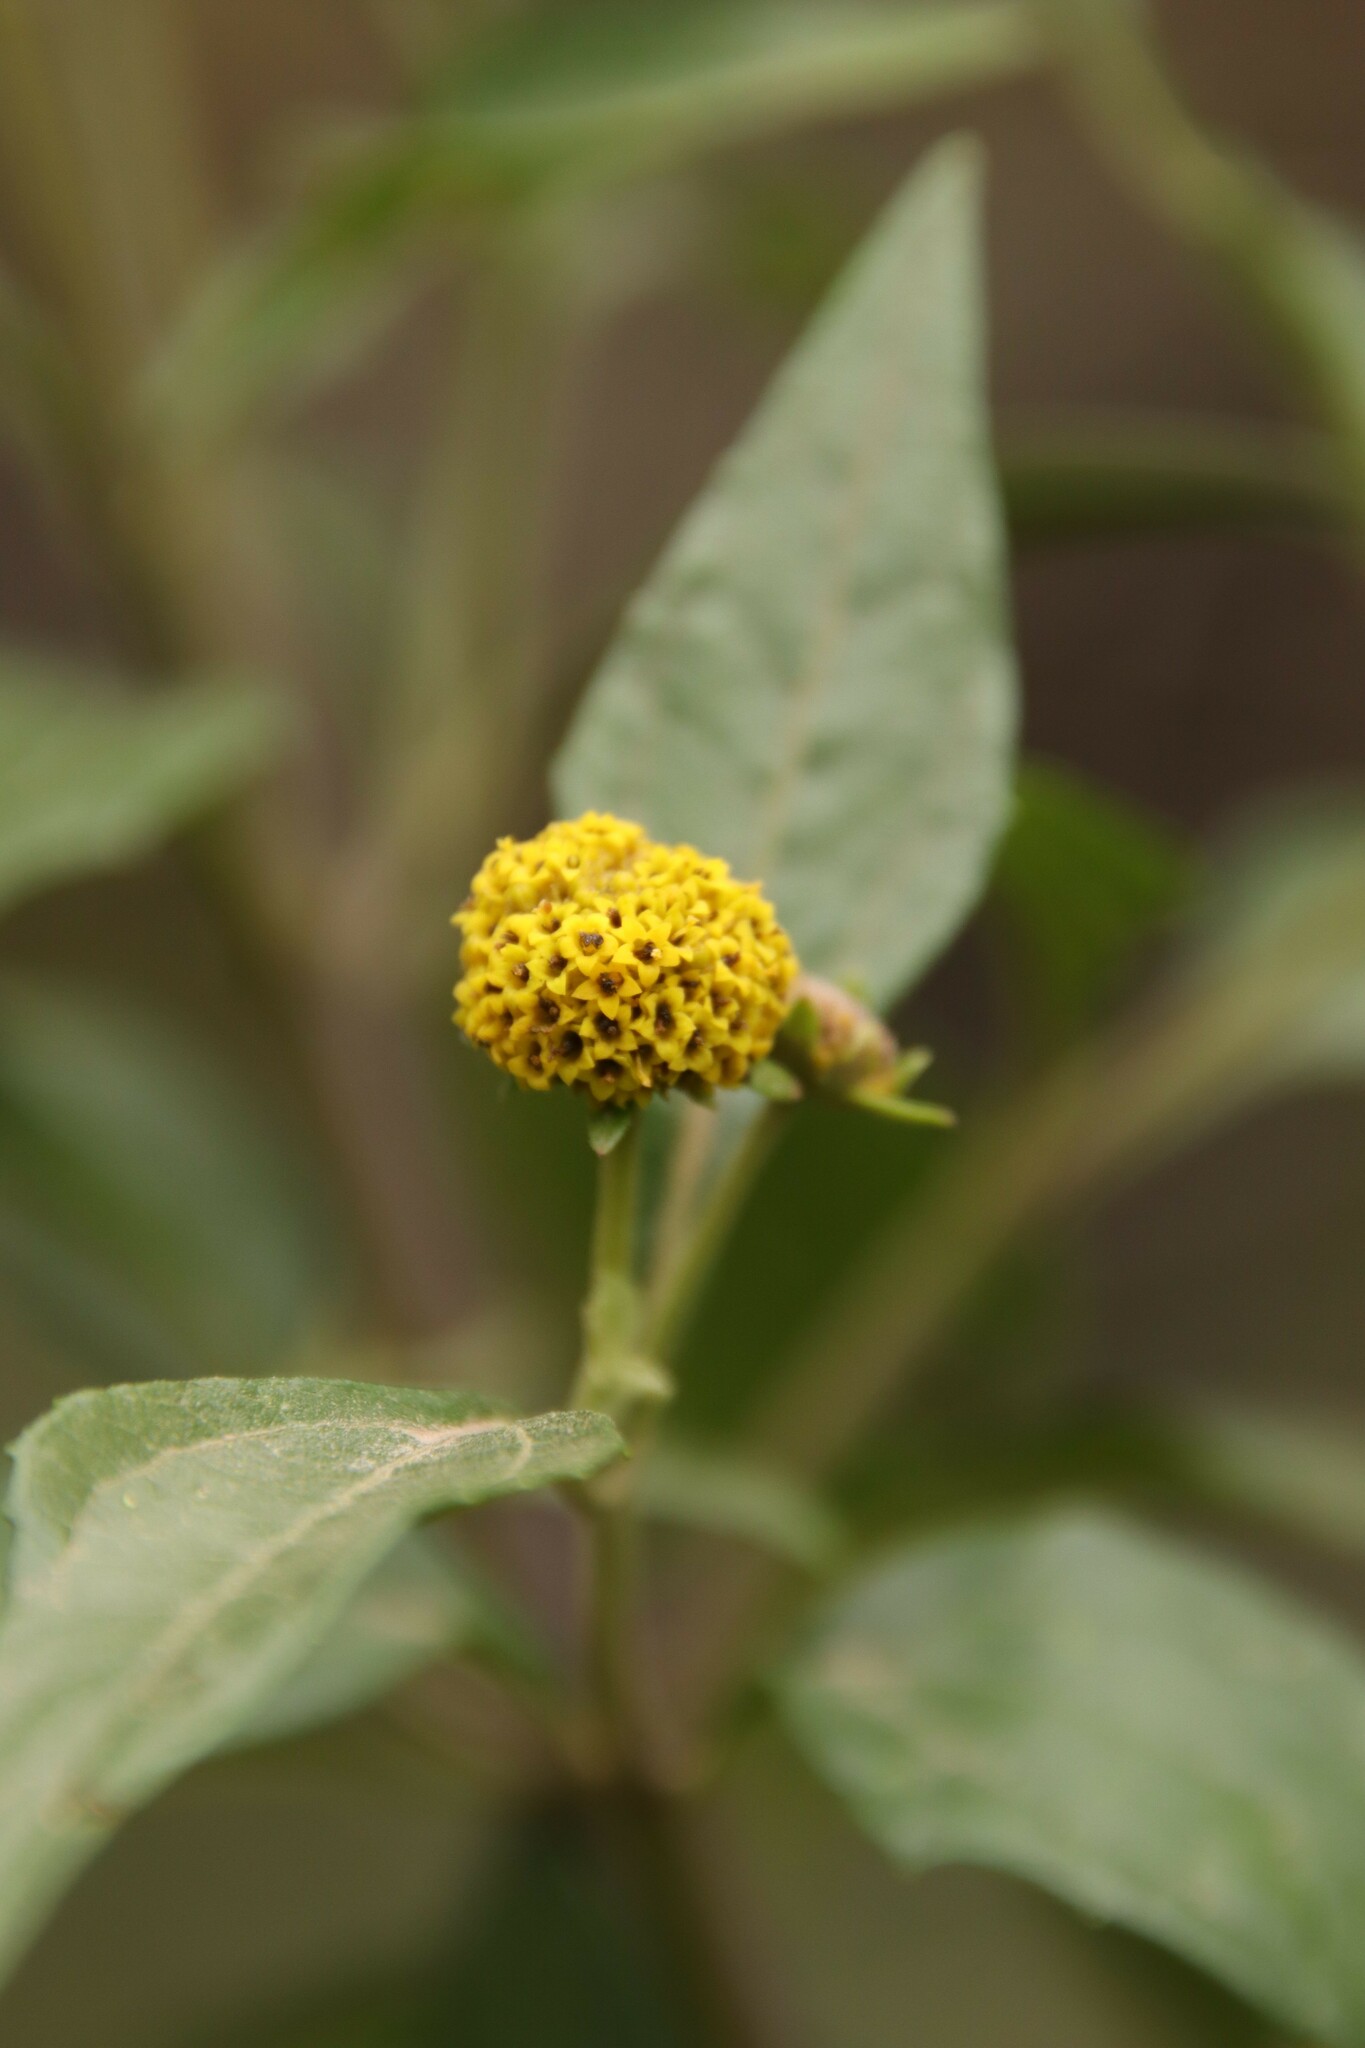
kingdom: Plantae
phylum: Tracheophyta
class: Magnoliopsida
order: Asterales
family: Asteraceae
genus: Podanthus
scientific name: Podanthus mitiqui
